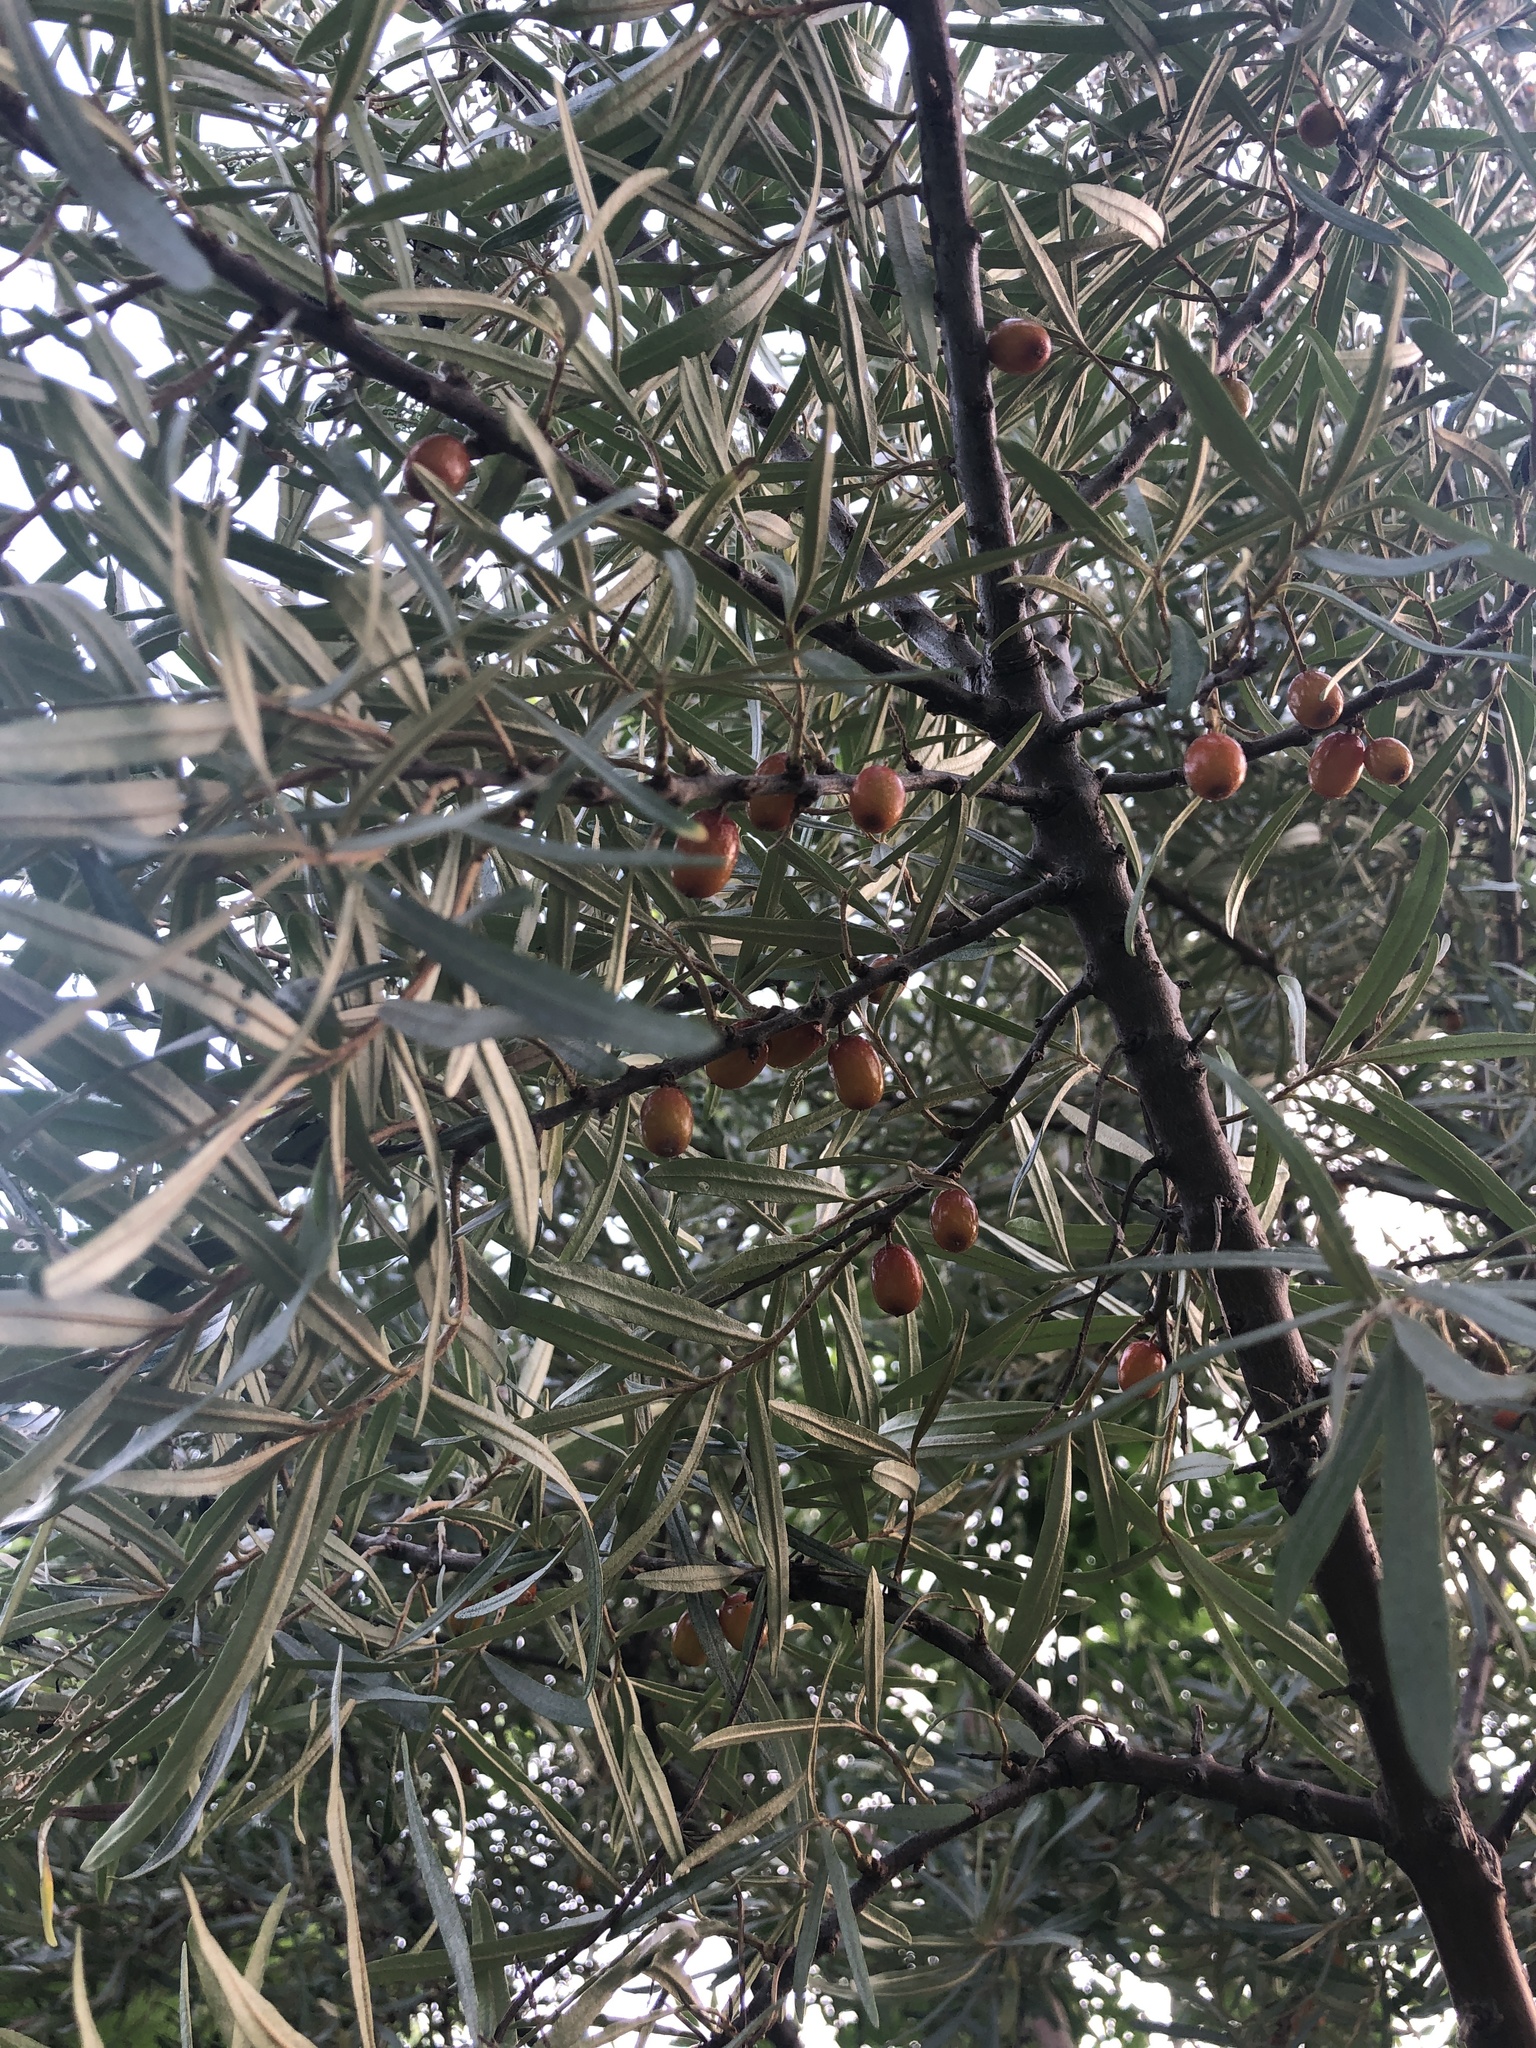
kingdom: Plantae
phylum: Tracheophyta
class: Magnoliopsida
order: Rosales
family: Elaeagnaceae
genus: Elaeagnus
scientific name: Elaeagnus angustifolia
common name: Russian olive
